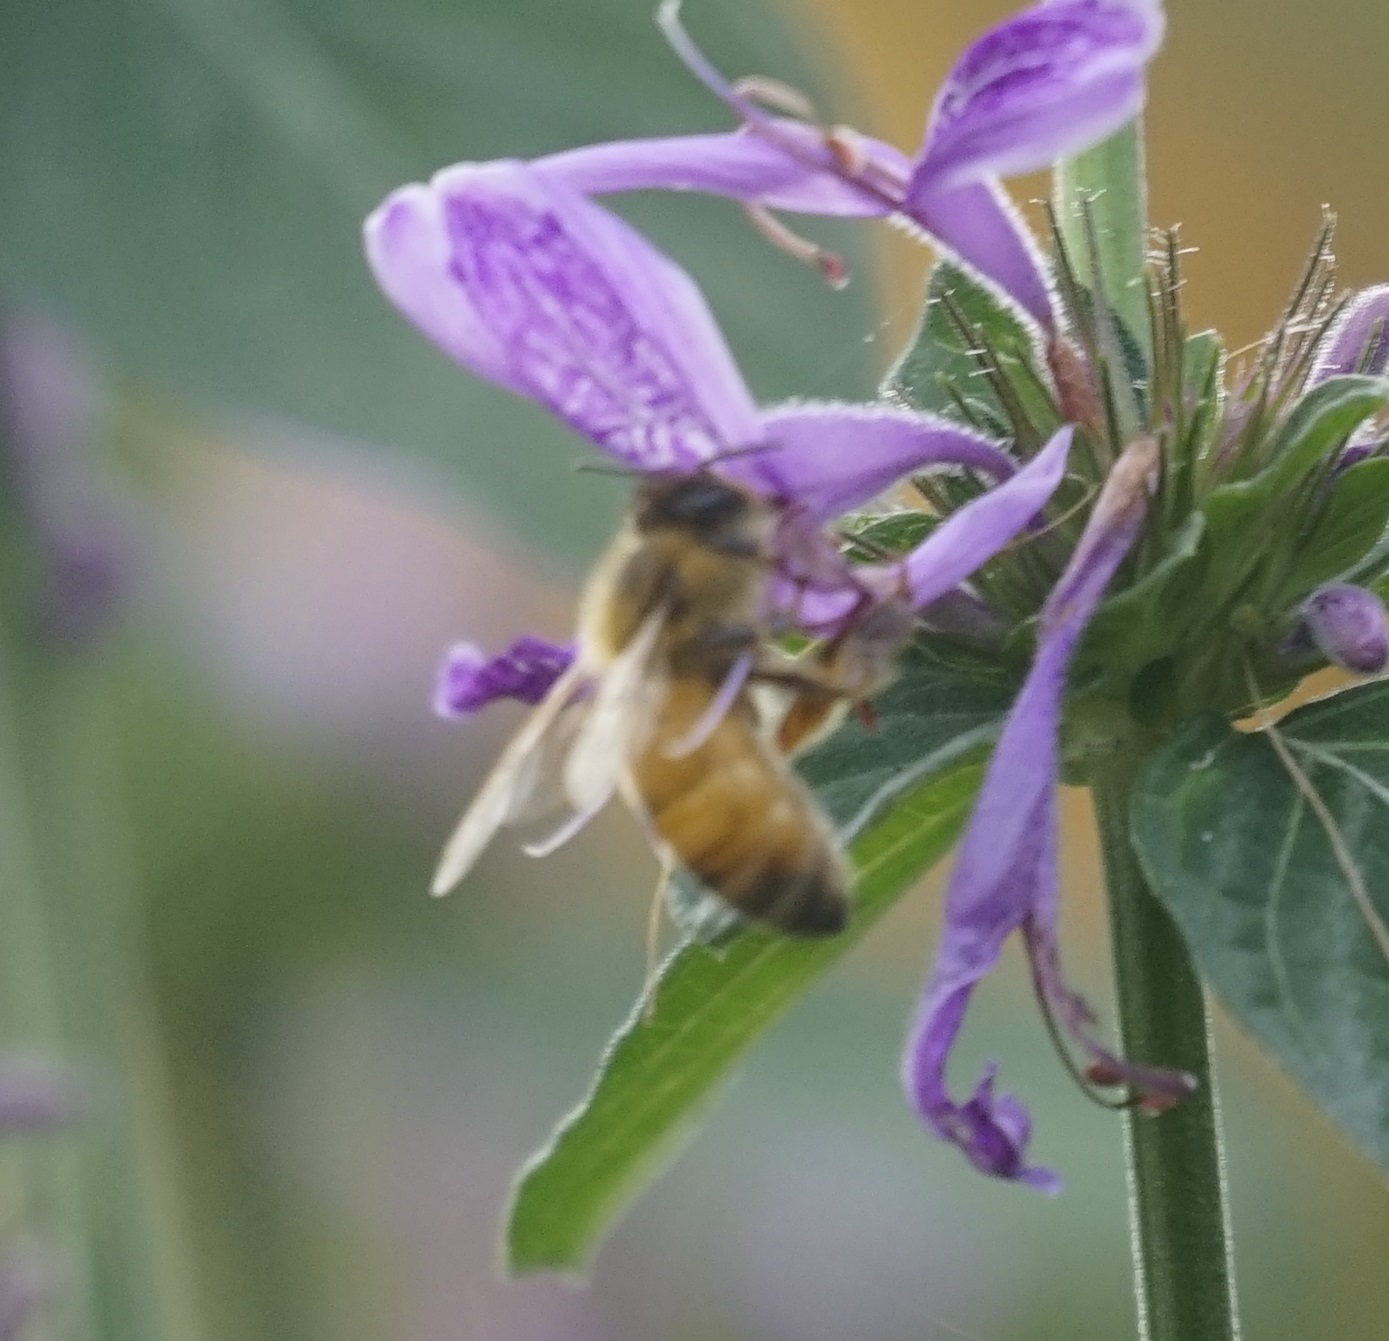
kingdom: Animalia
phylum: Arthropoda
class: Insecta
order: Hymenoptera
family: Apidae
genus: Apis
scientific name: Apis mellifera
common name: Honey bee
